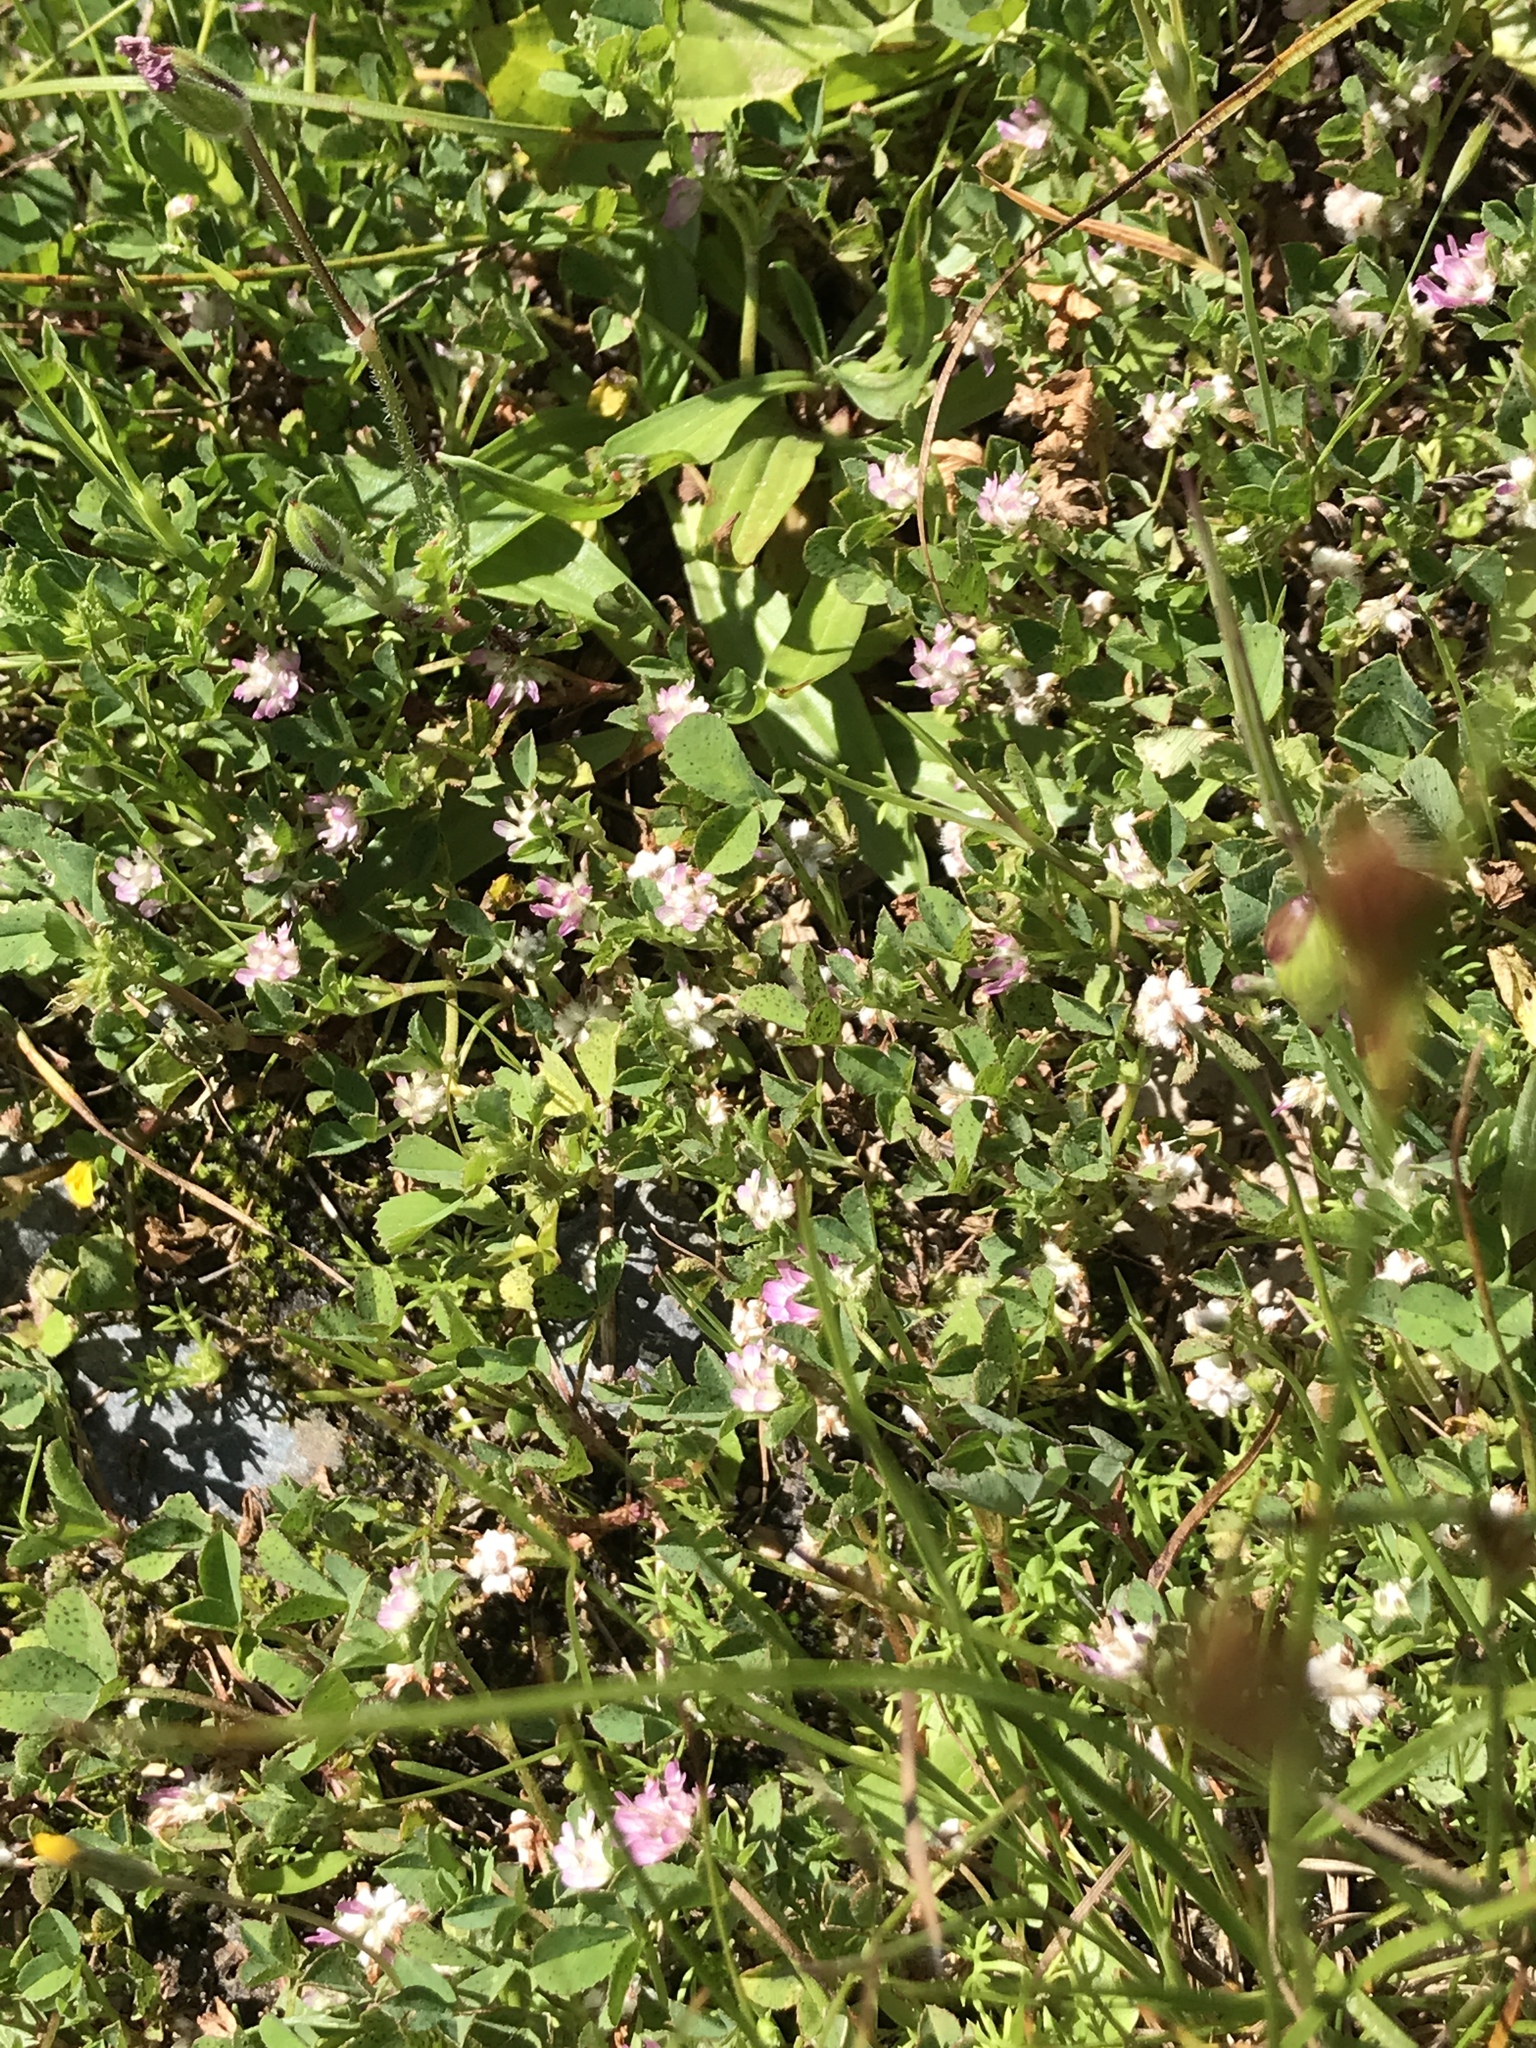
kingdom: Plantae
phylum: Tracheophyta
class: Magnoliopsida
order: Fabales
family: Fabaceae
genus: Trifolium
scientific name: Trifolium resupinatum
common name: Reversed clover
